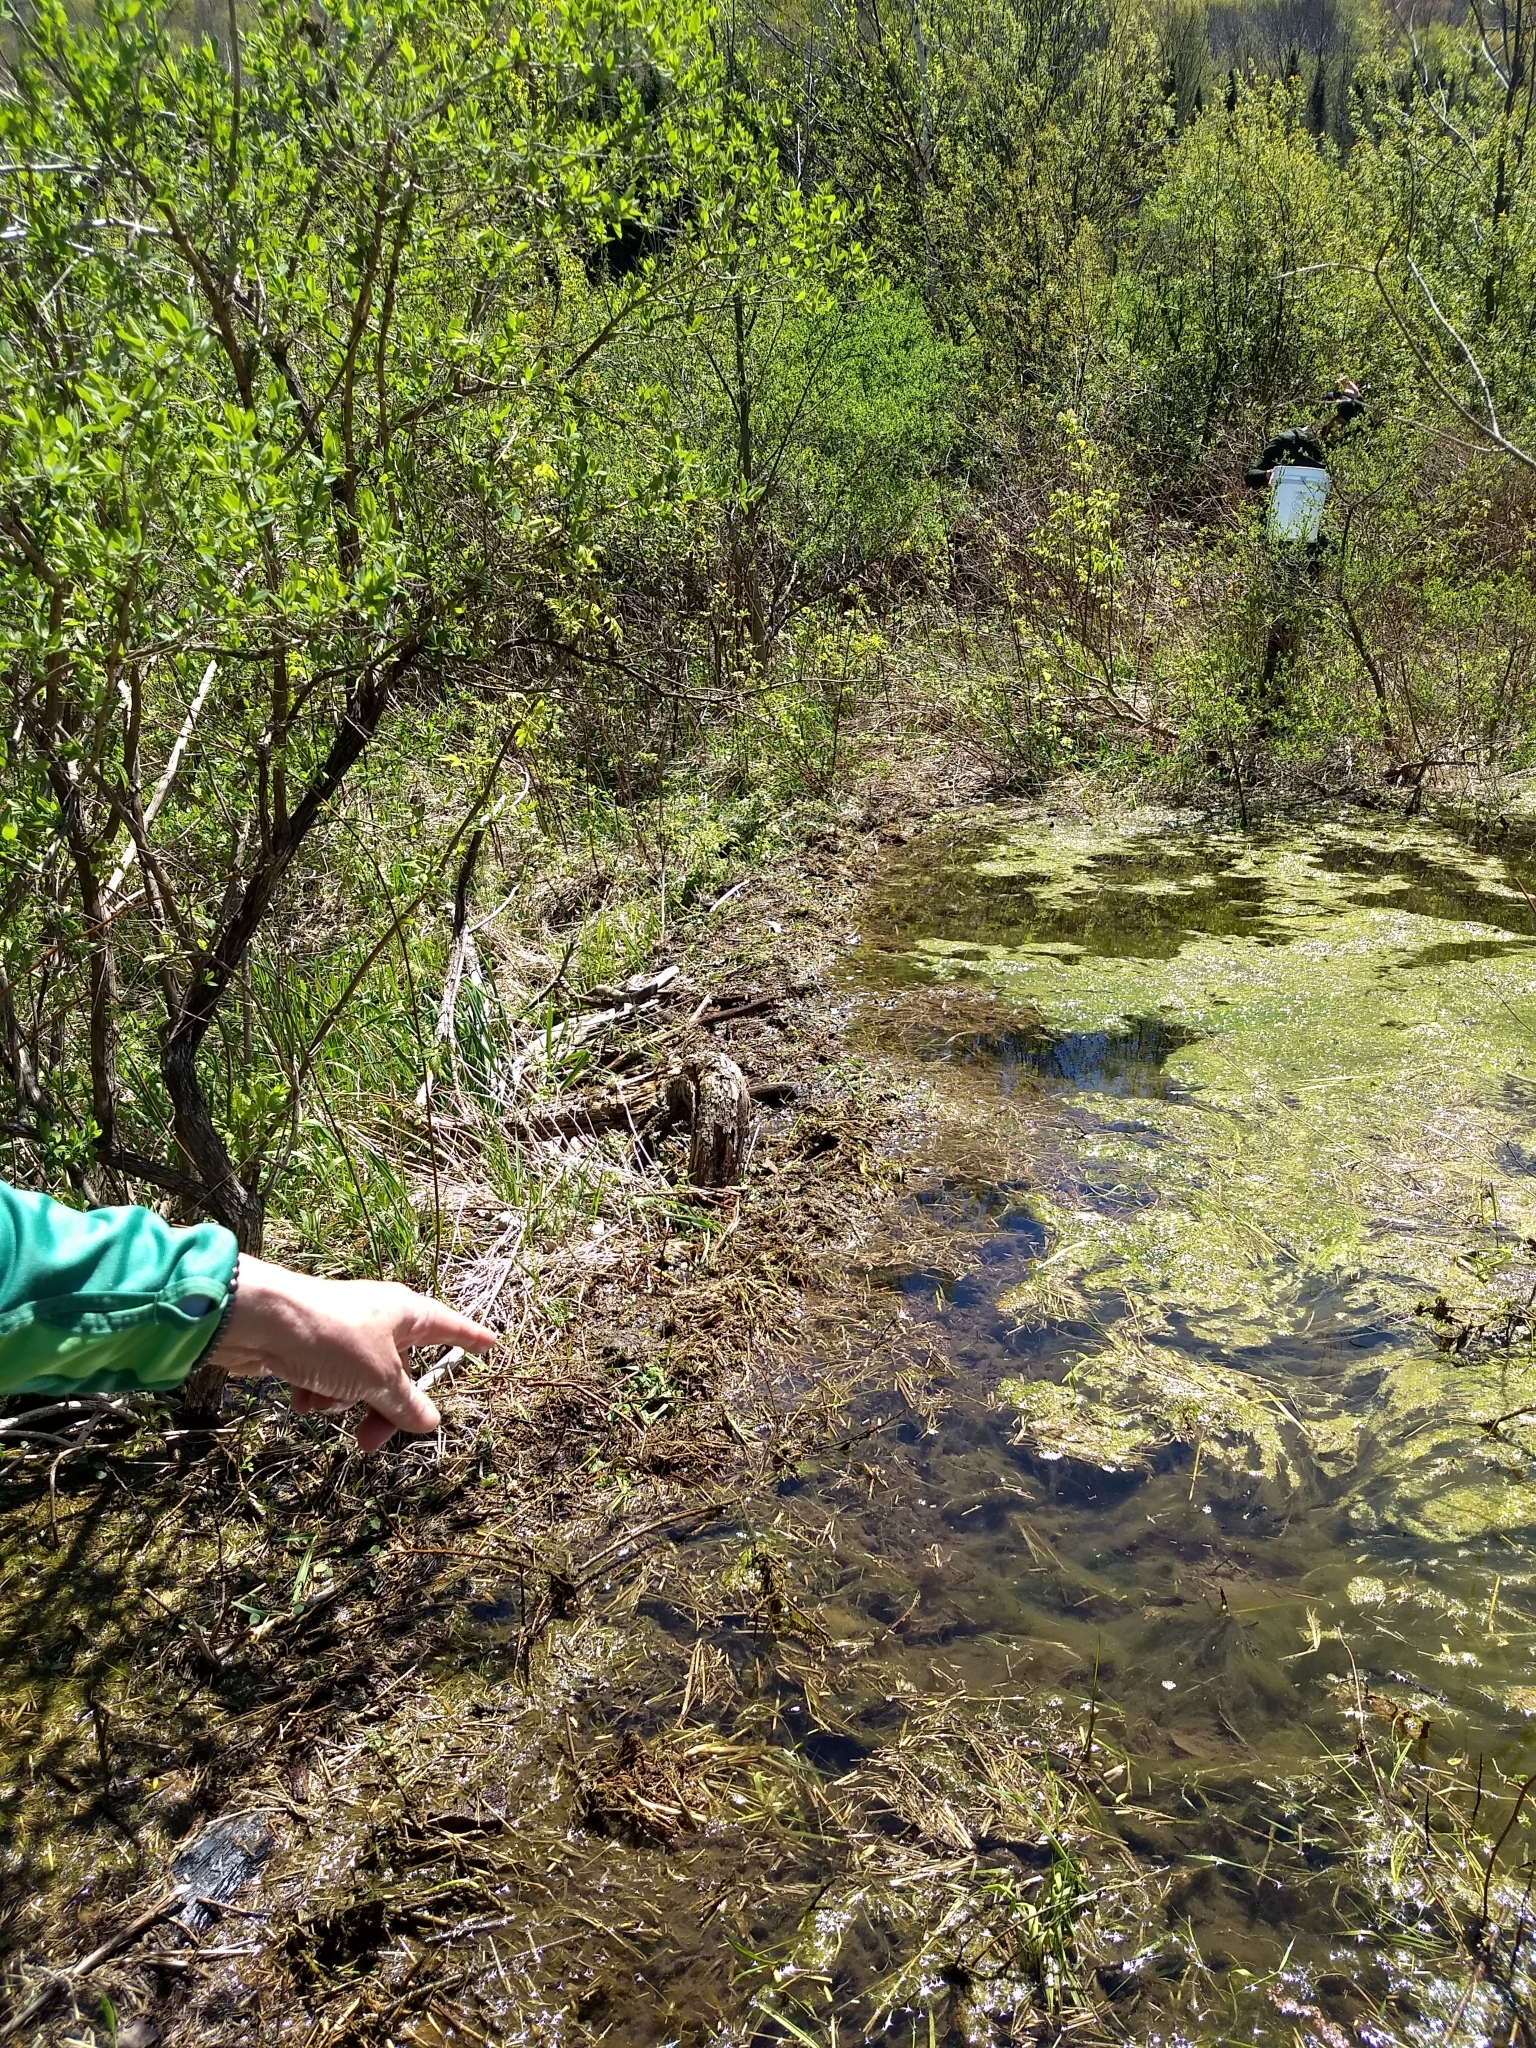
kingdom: Animalia
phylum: Chordata
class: Mammalia
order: Rodentia
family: Castoridae
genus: Castor
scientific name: Castor canadensis
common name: American beaver
